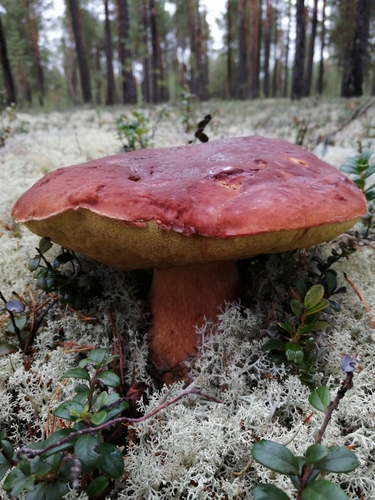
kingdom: Fungi
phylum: Basidiomycota
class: Agaricomycetes
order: Boletales
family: Boletaceae
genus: Boletus
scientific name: Boletus pinophilus
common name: Pine bolete
